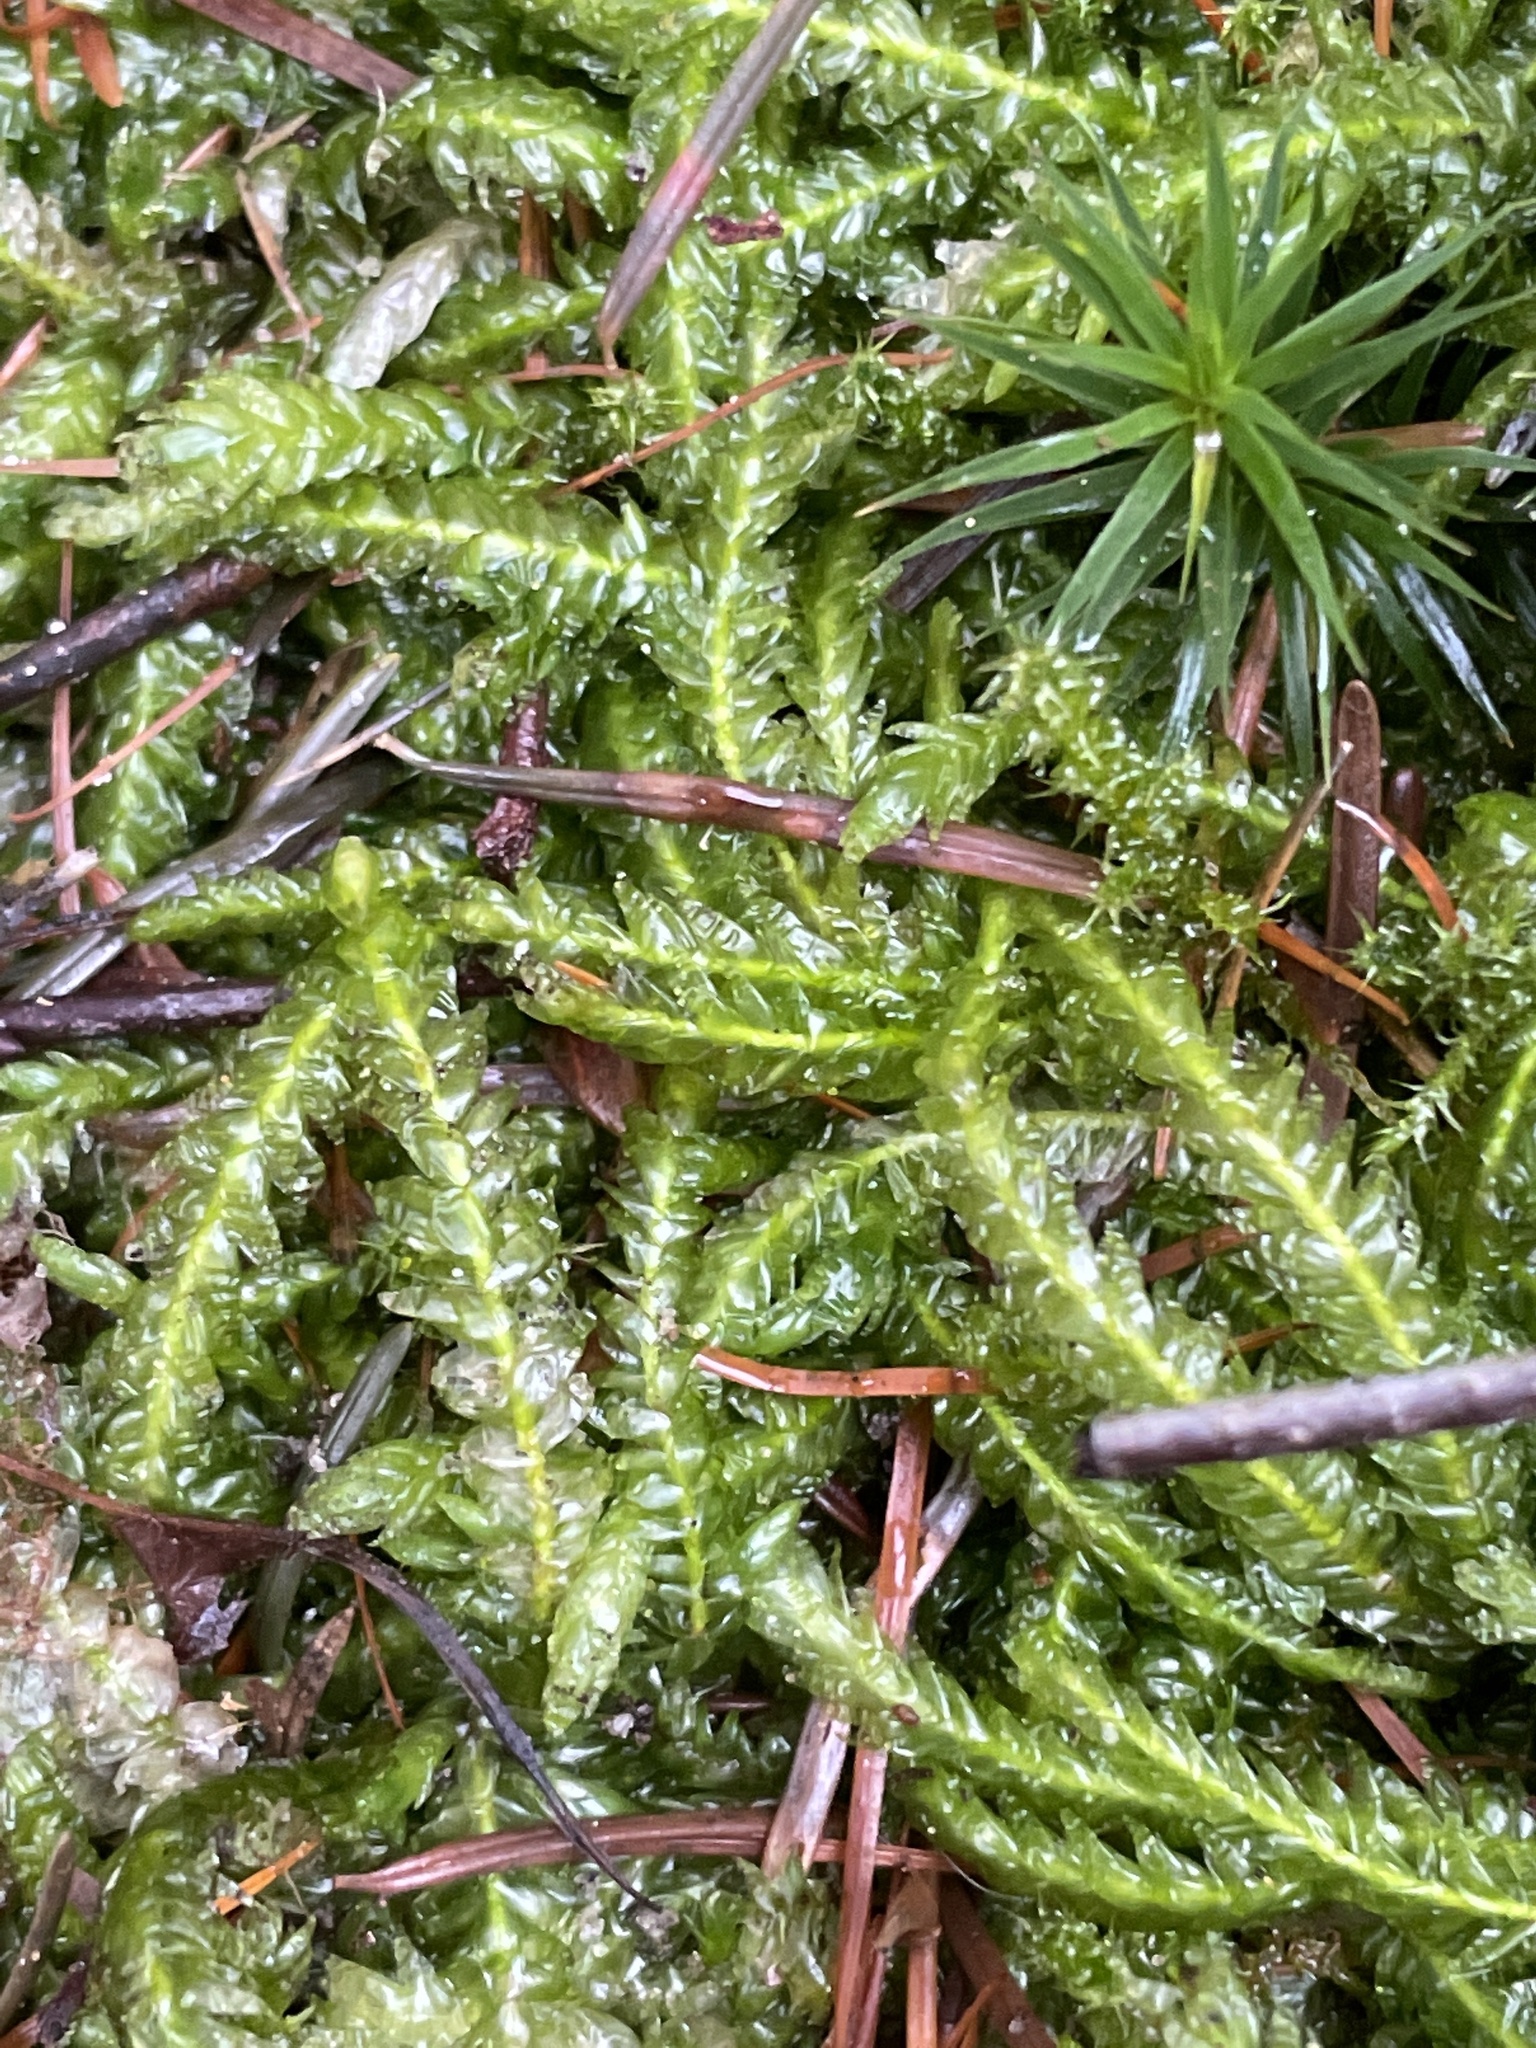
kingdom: Plantae
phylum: Bryophyta
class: Bryopsida
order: Hypnales
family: Plagiotheciaceae
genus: Plagiothecium
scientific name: Plagiothecium undulatum
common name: Waved silk-moss
